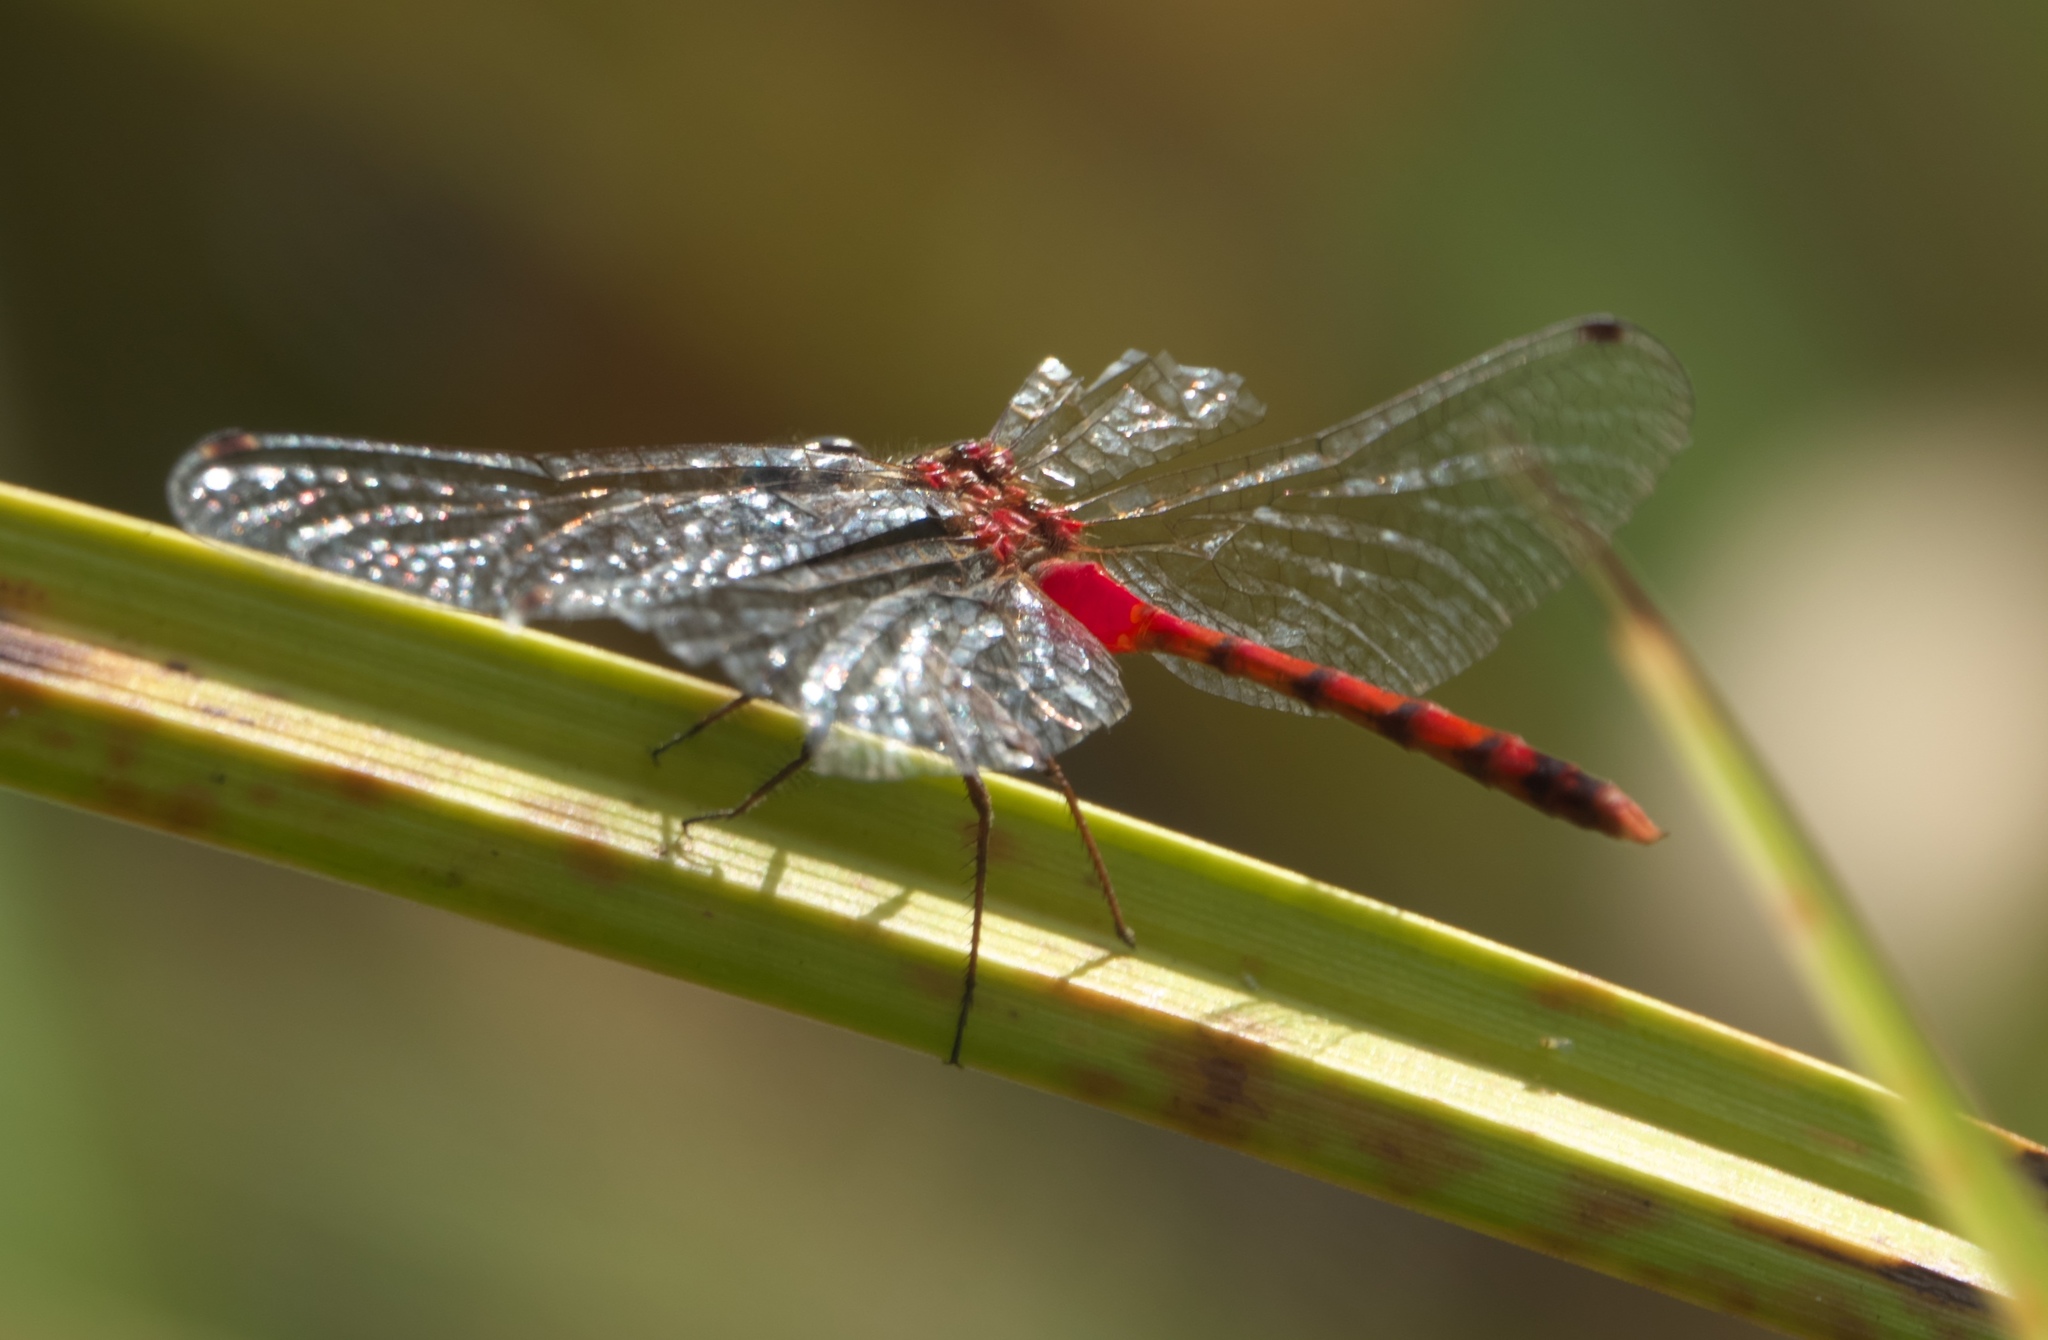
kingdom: Animalia
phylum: Arthropoda
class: Insecta
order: Odonata
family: Libellulidae
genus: Sympetrum
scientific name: Sympetrum ambiguum
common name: Blue-faced meadowhawk
